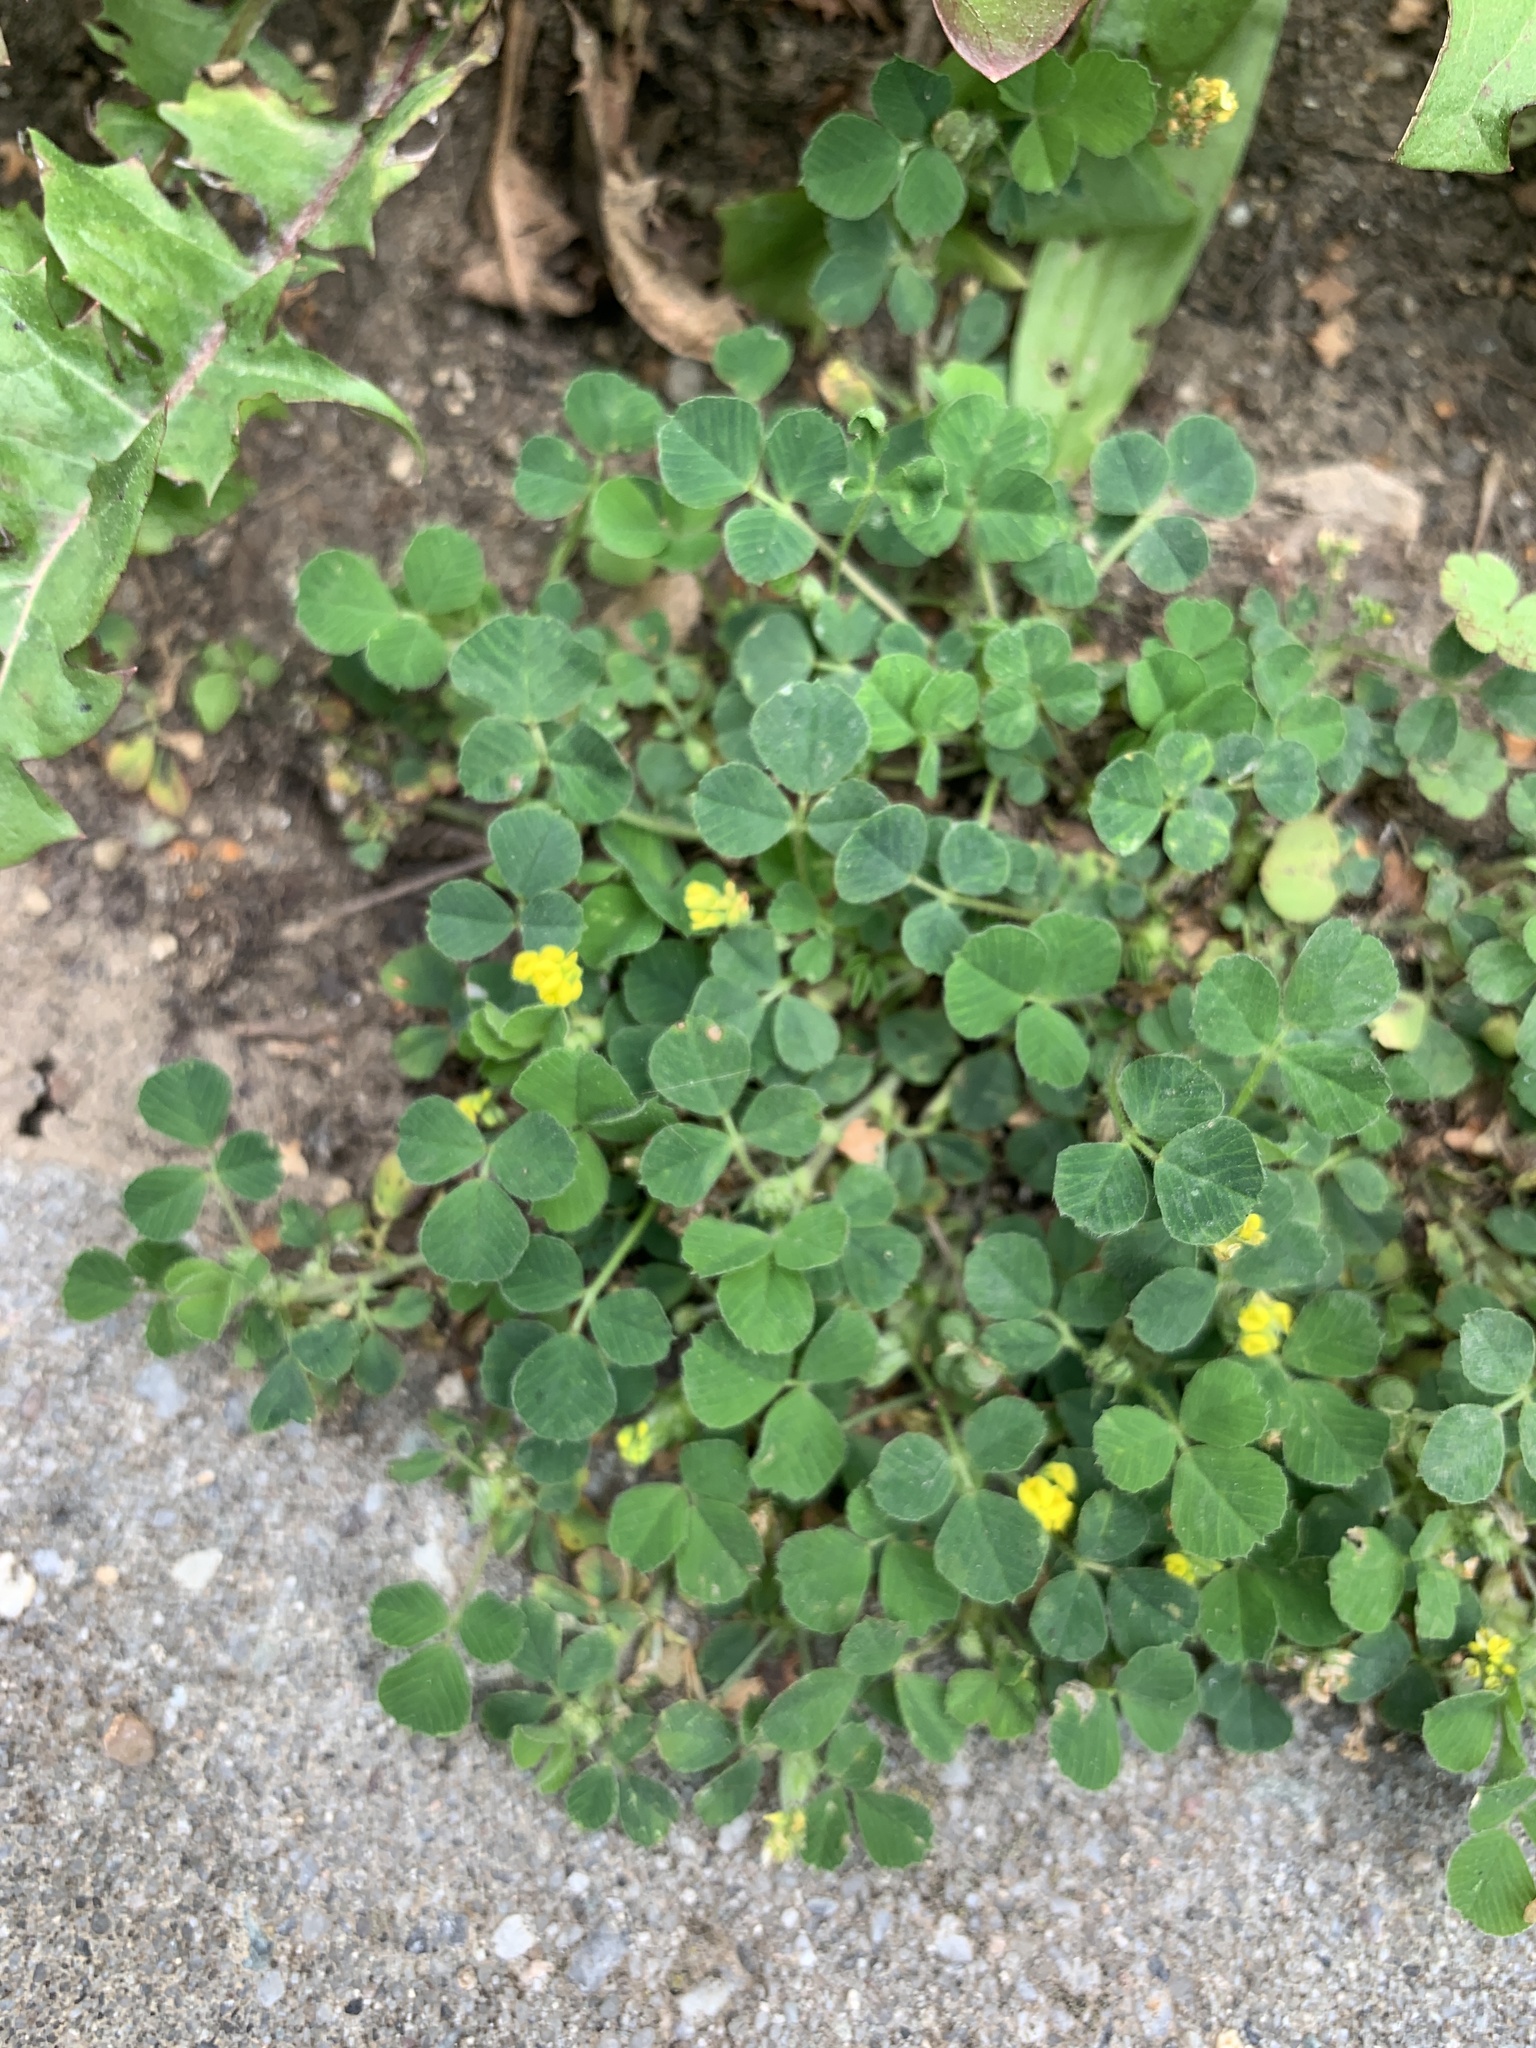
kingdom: Plantae
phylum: Tracheophyta
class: Magnoliopsida
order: Fabales
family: Fabaceae
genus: Medicago
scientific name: Medicago lupulina
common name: Black medick
